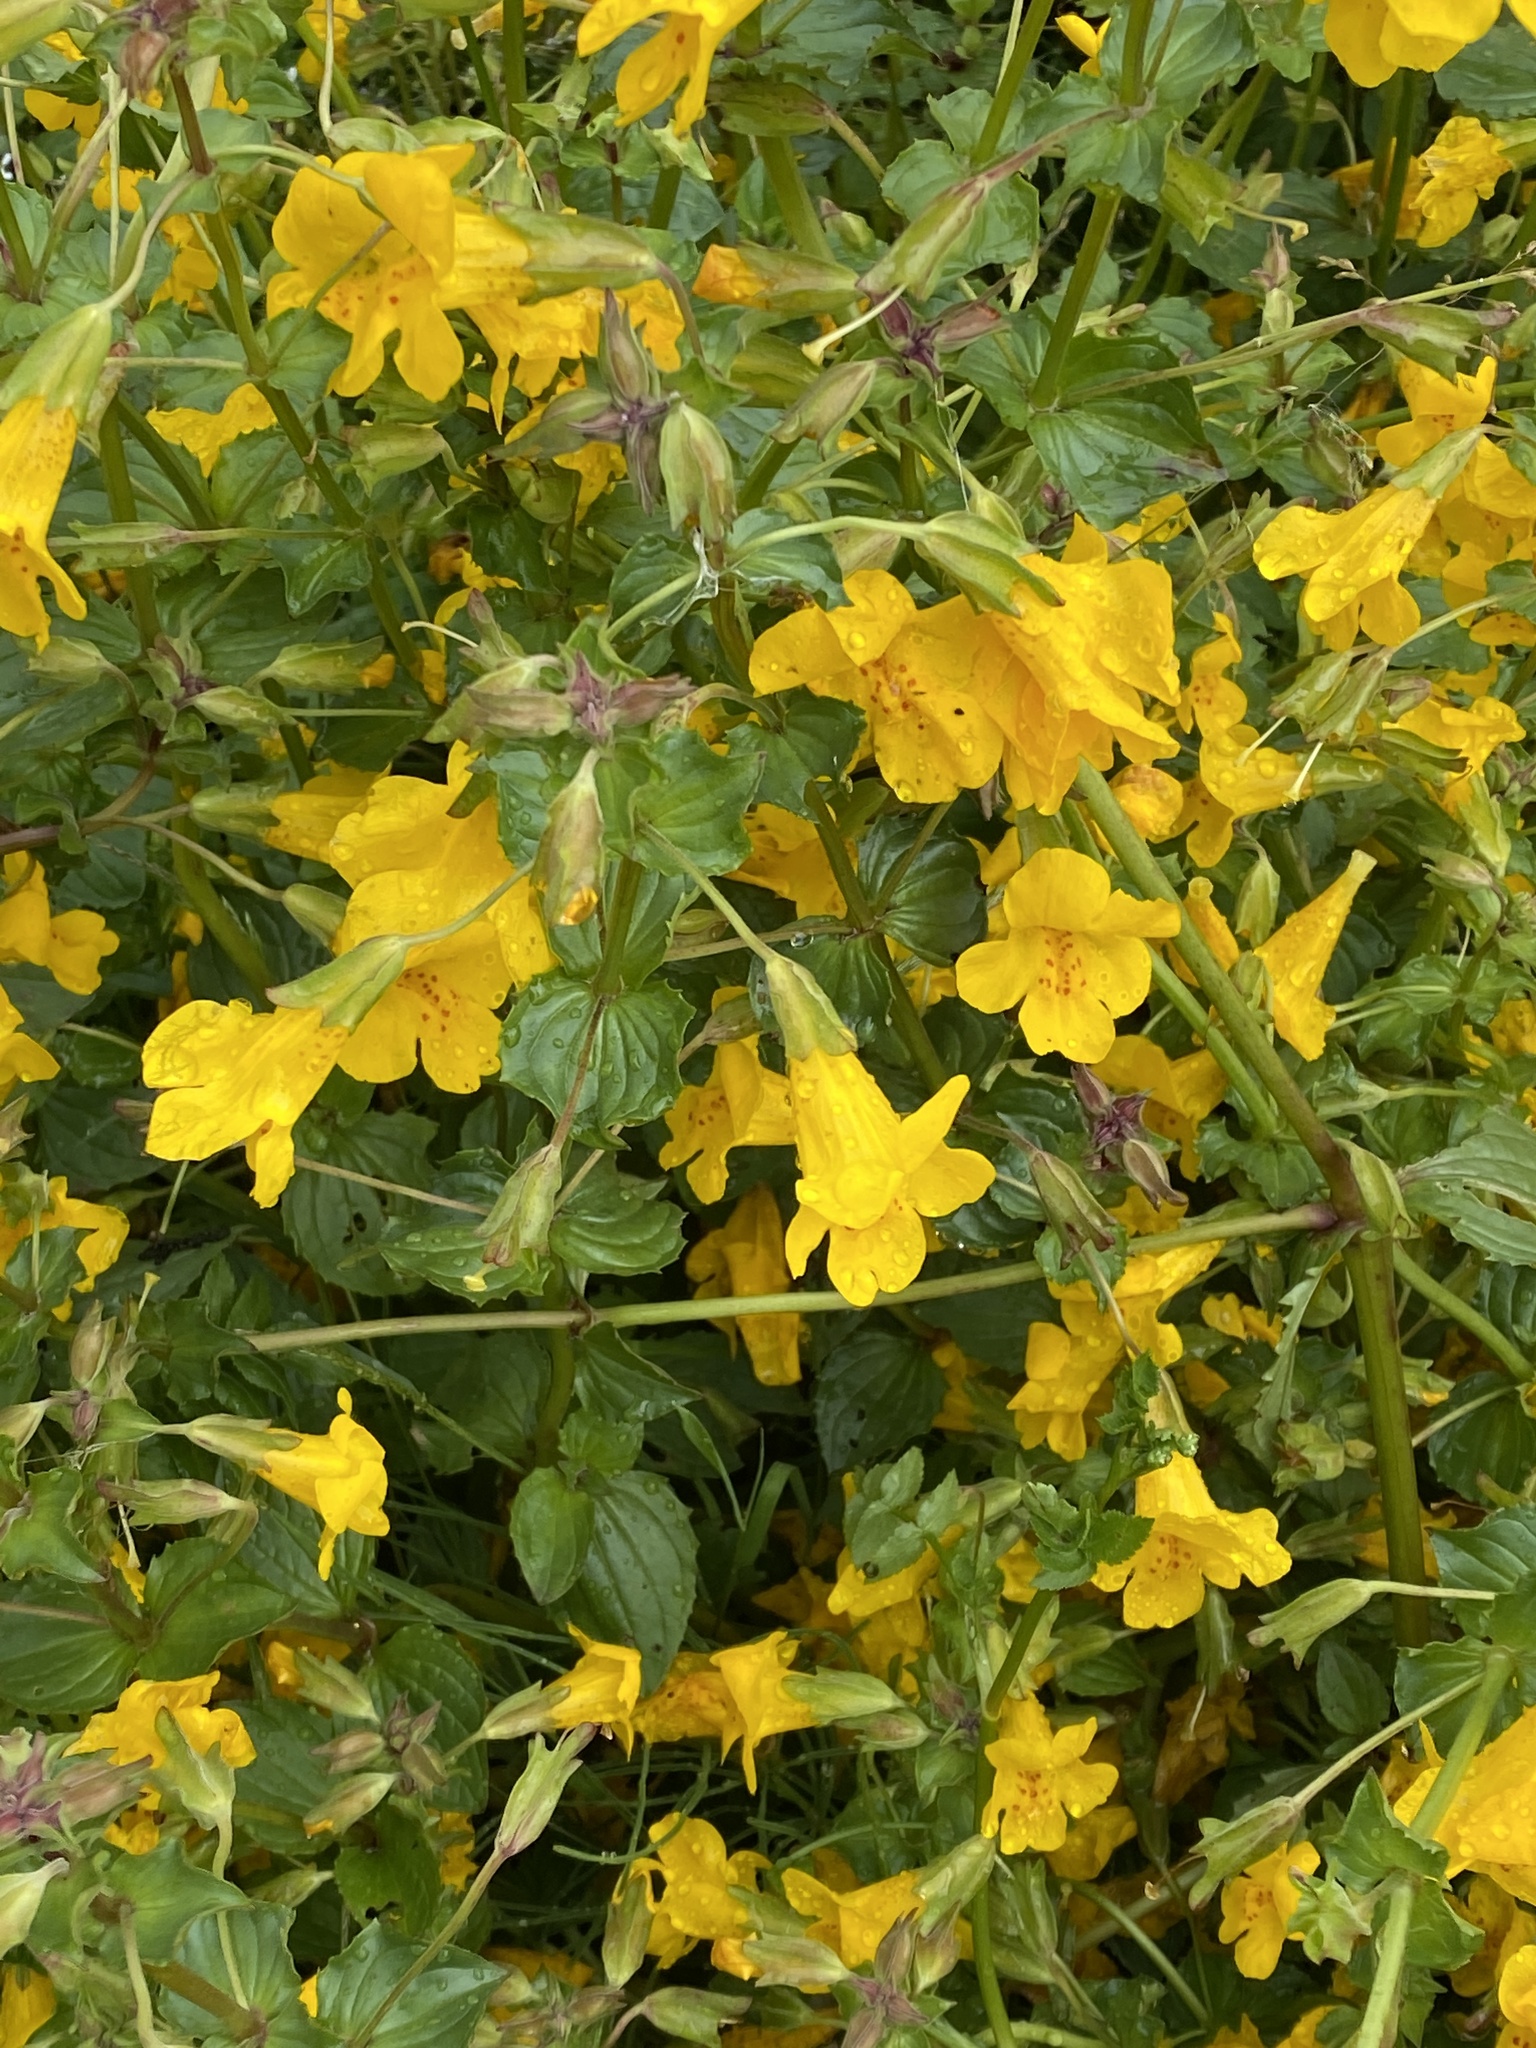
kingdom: Plantae
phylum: Tracheophyta
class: Magnoliopsida
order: Lamiales
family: Phrymaceae
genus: Erythranthe
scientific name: Erythranthe guttata
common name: Monkeyflower
